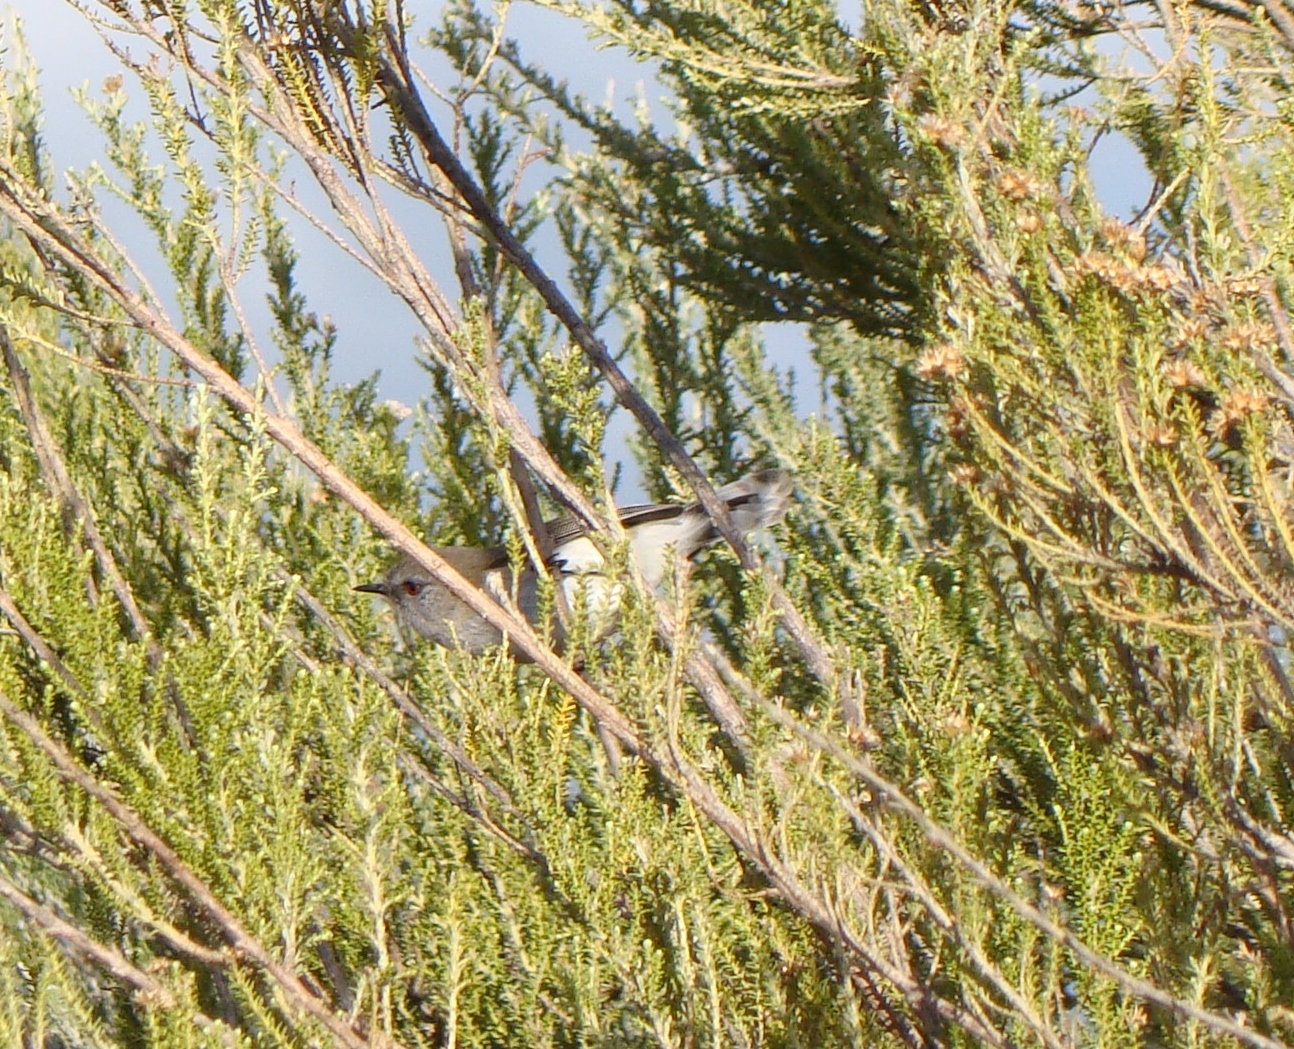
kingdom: Animalia
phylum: Chordata
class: Aves
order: Passeriformes
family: Acanthizidae
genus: Gerygone
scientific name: Gerygone igata
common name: Grey gerygone
